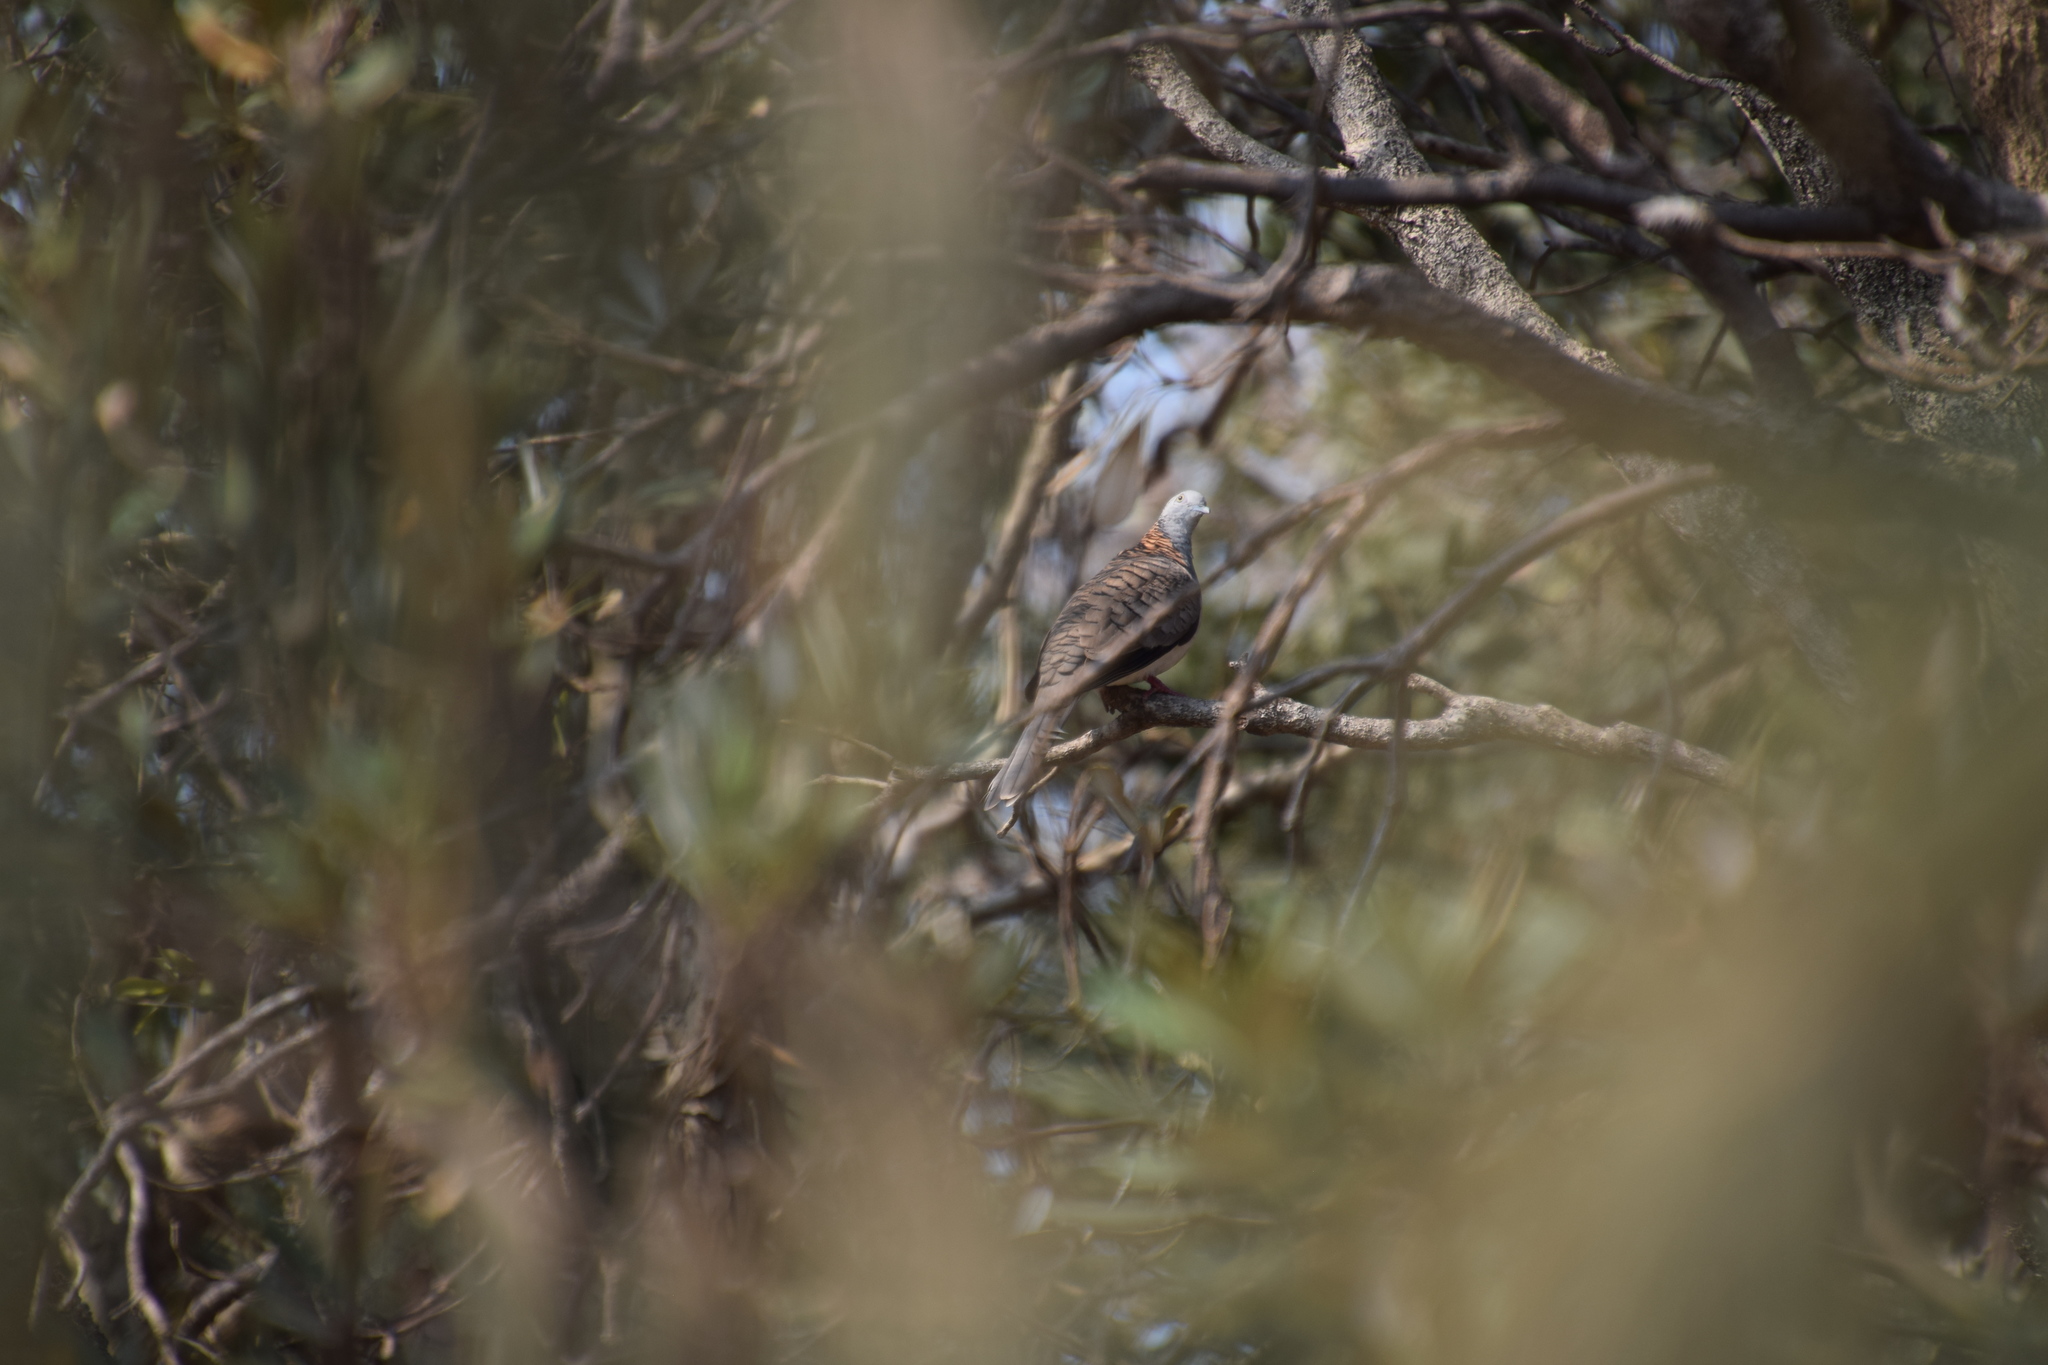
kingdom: Animalia
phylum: Chordata
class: Aves
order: Columbiformes
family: Columbidae
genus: Geopelia
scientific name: Geopelia humeralis
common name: Bar-shouldered dove
